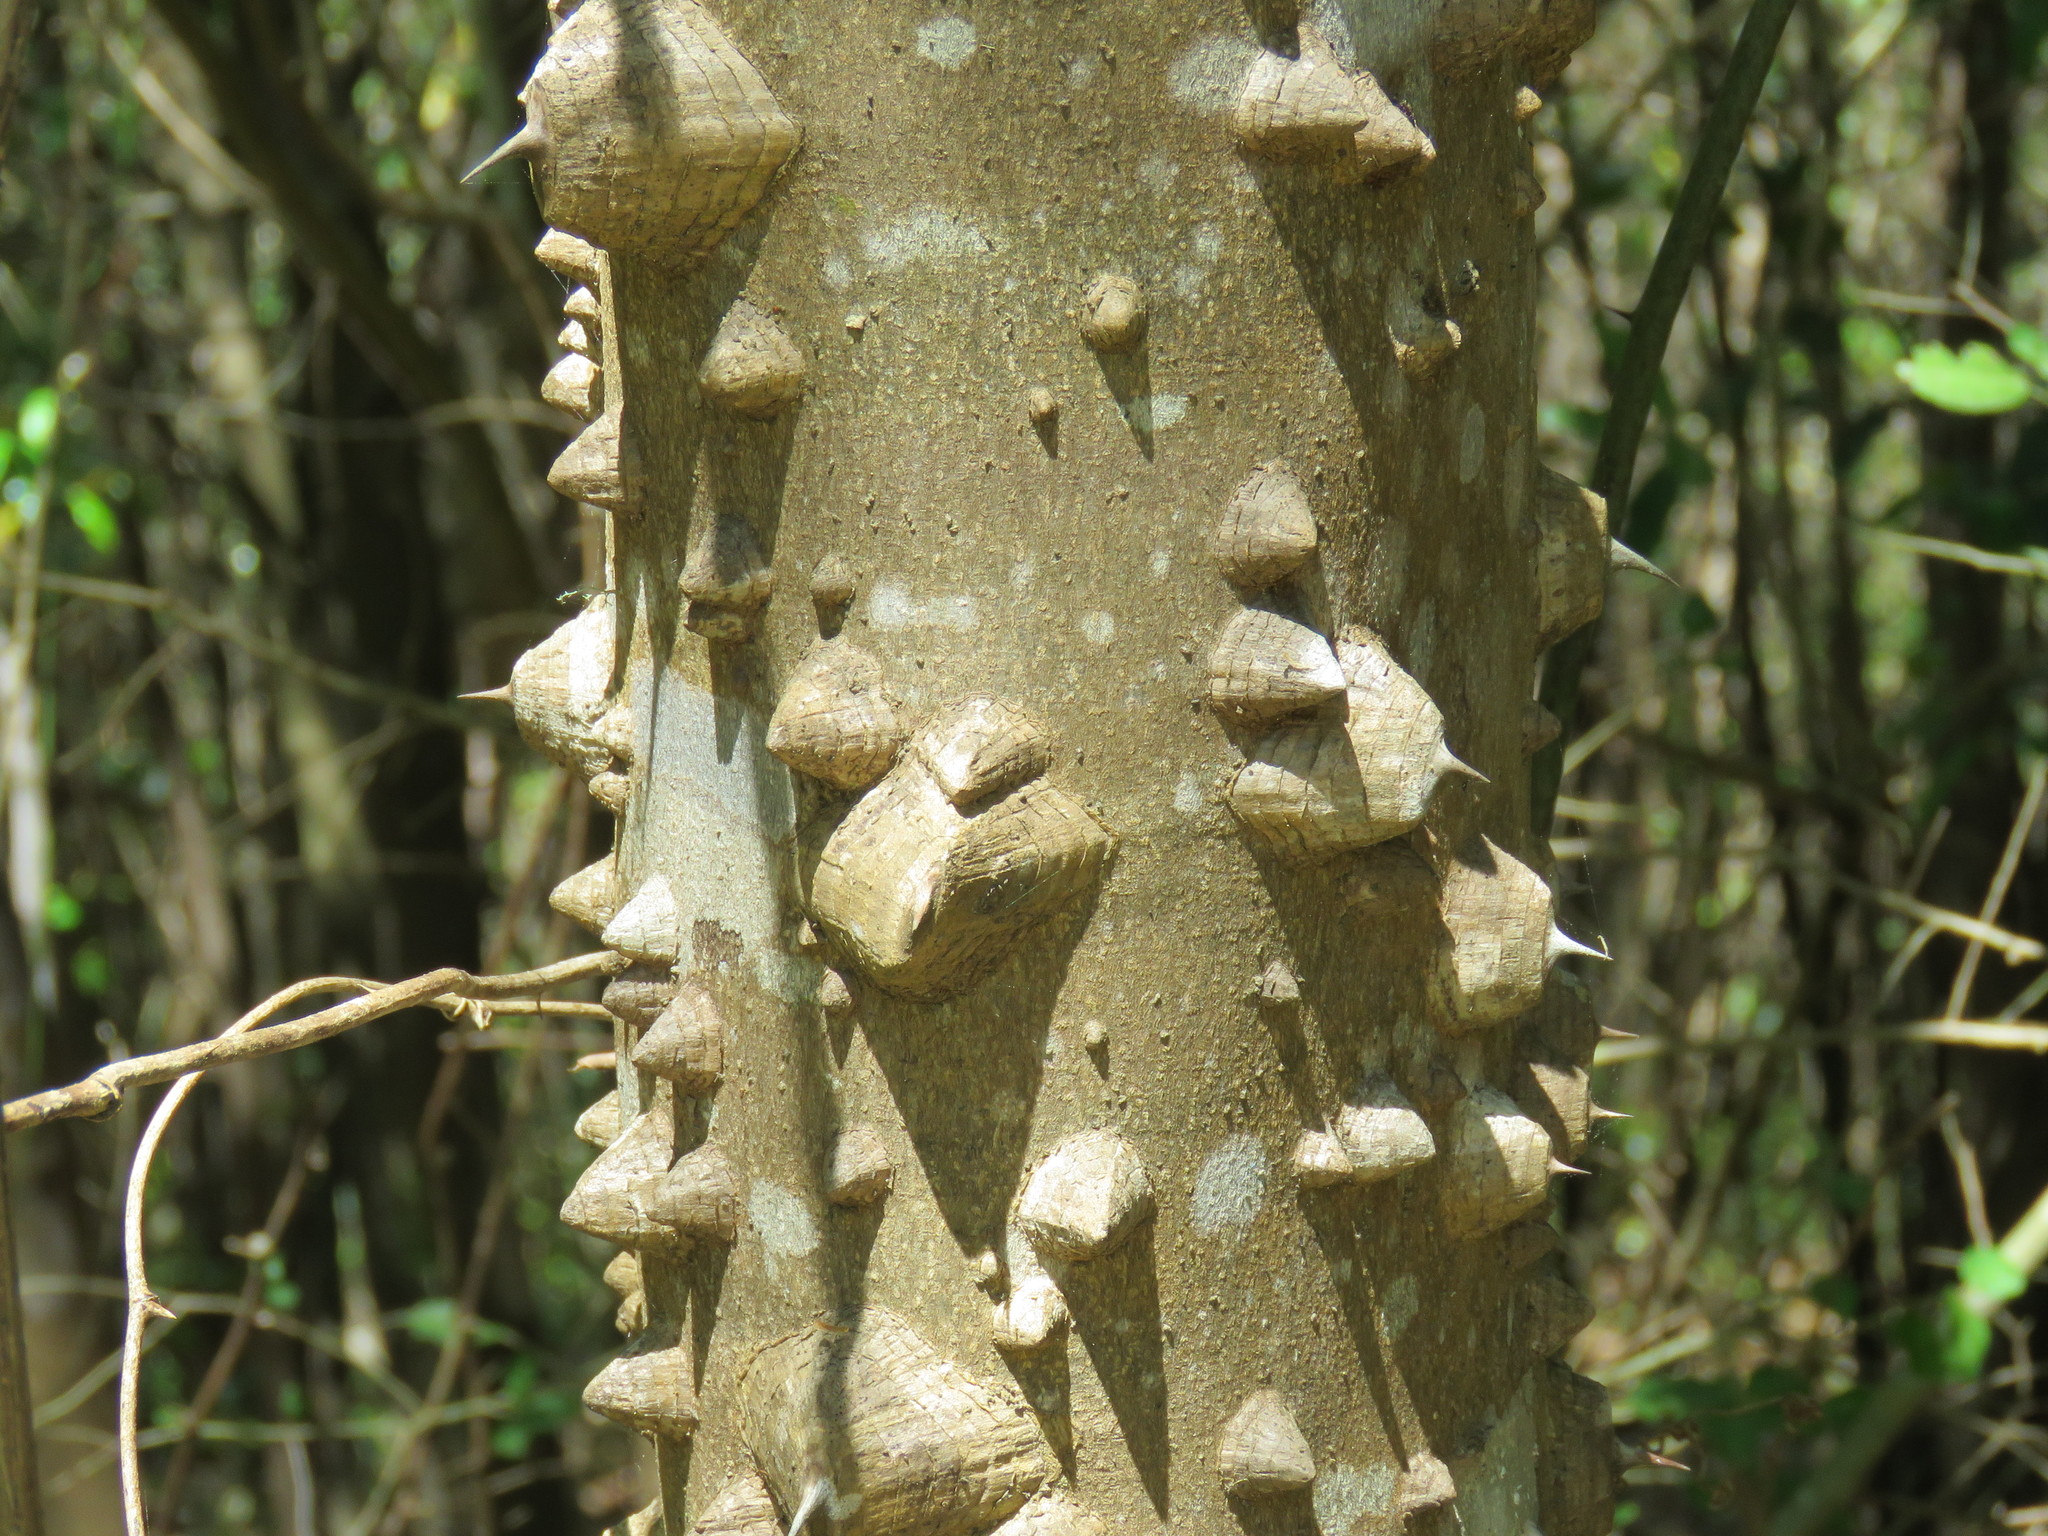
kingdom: Plantae
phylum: Tracheophyta
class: Magnoliopsida
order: Sapindales
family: Rutaceae
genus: Zanthoxylum
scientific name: Zanthoxylum clava-herculis
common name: Hercules'-club
